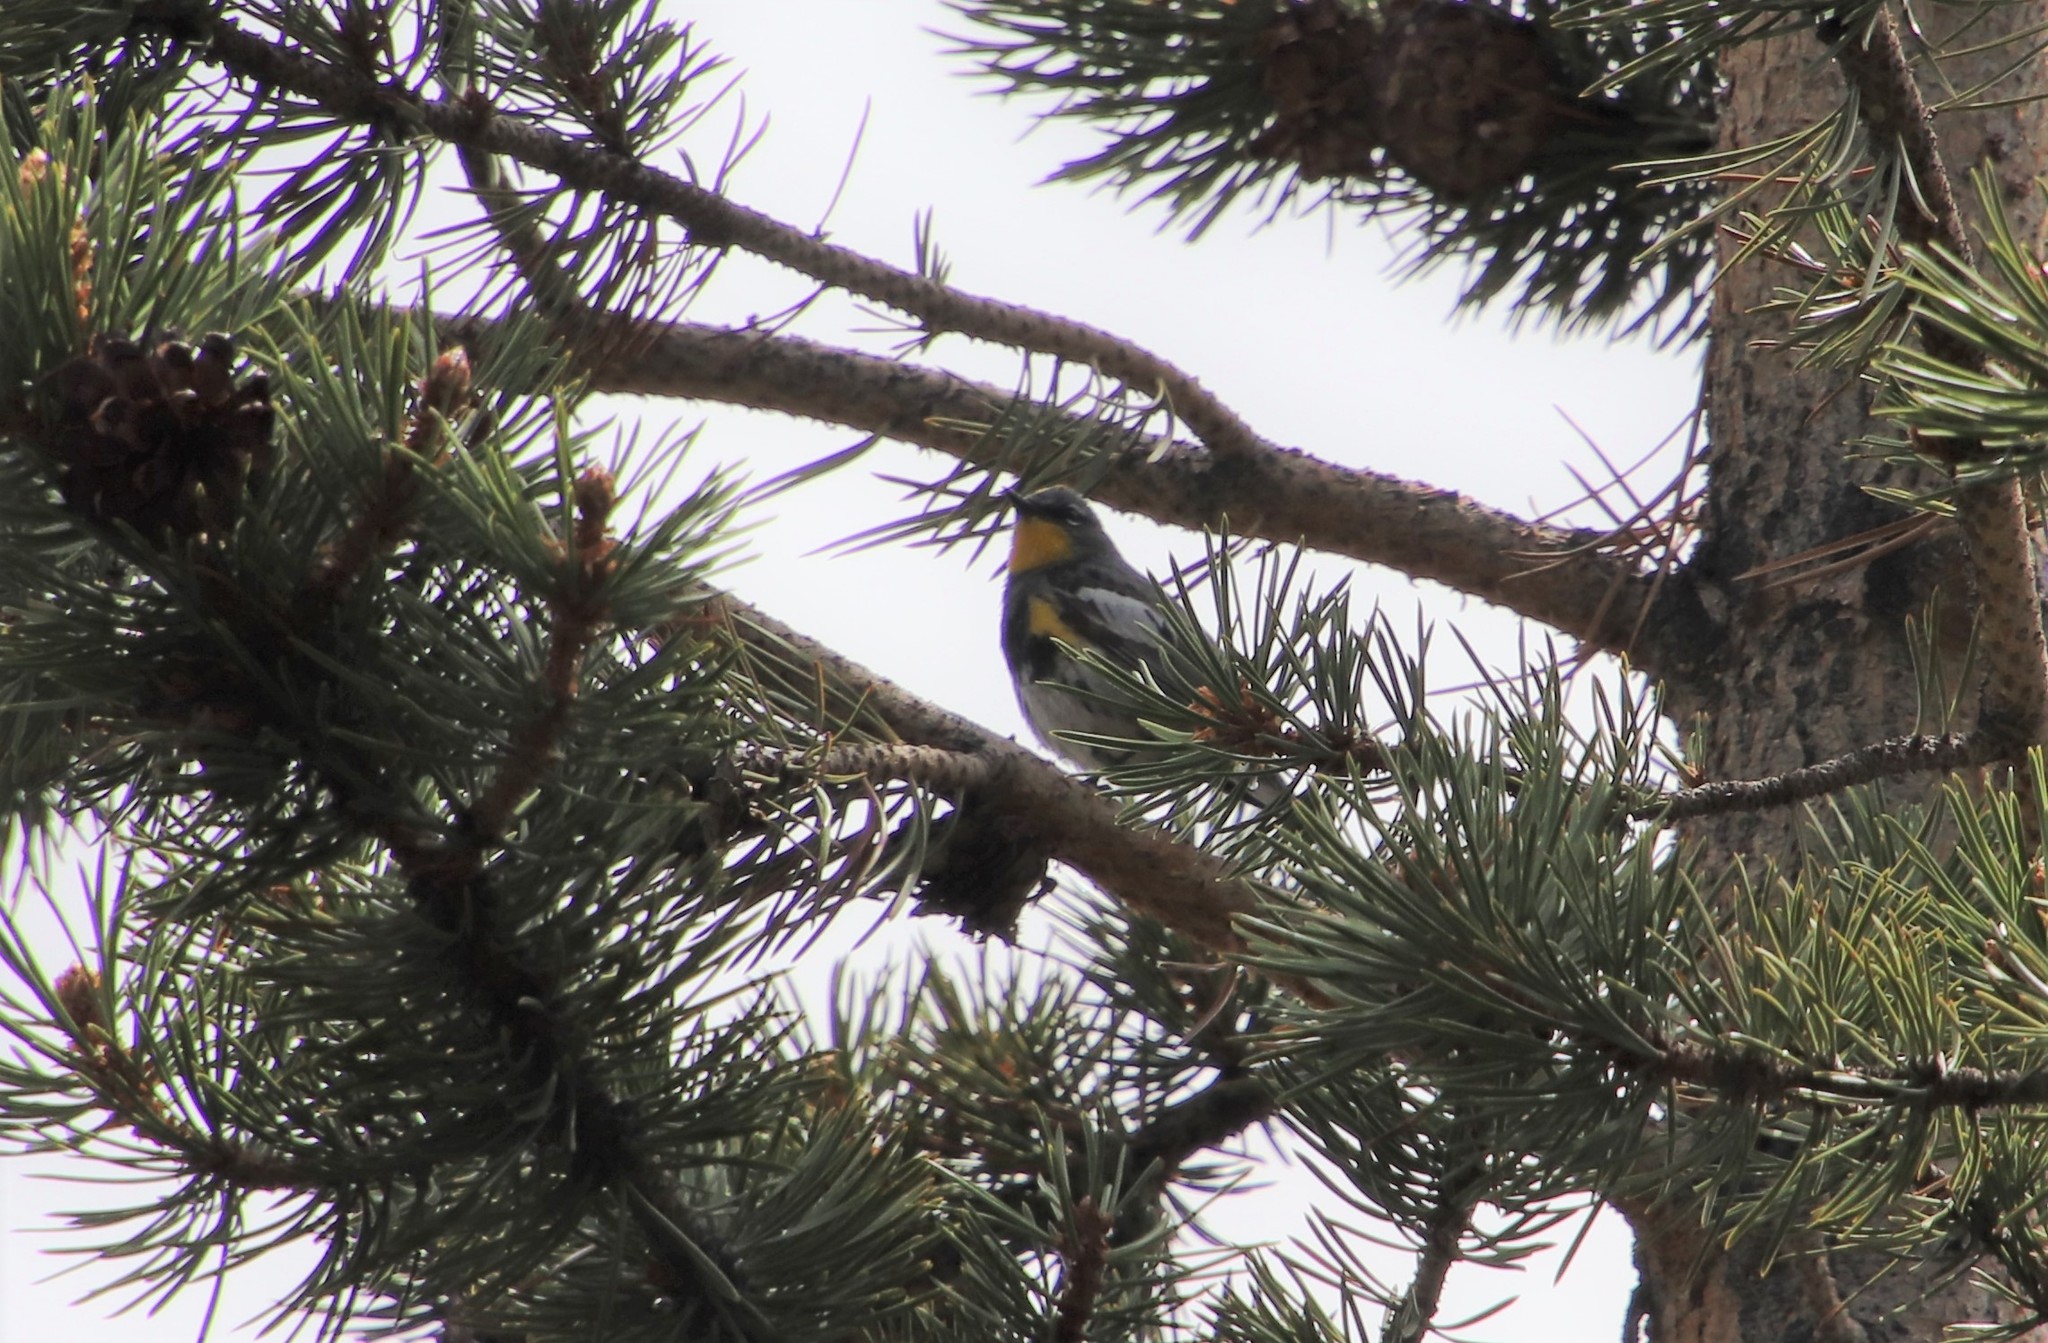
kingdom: Animalia
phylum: Chordata
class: Aves
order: Passeriformes
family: Parulidae
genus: Setophaga
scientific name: Setophaga auduboni
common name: Audubon's warbler
